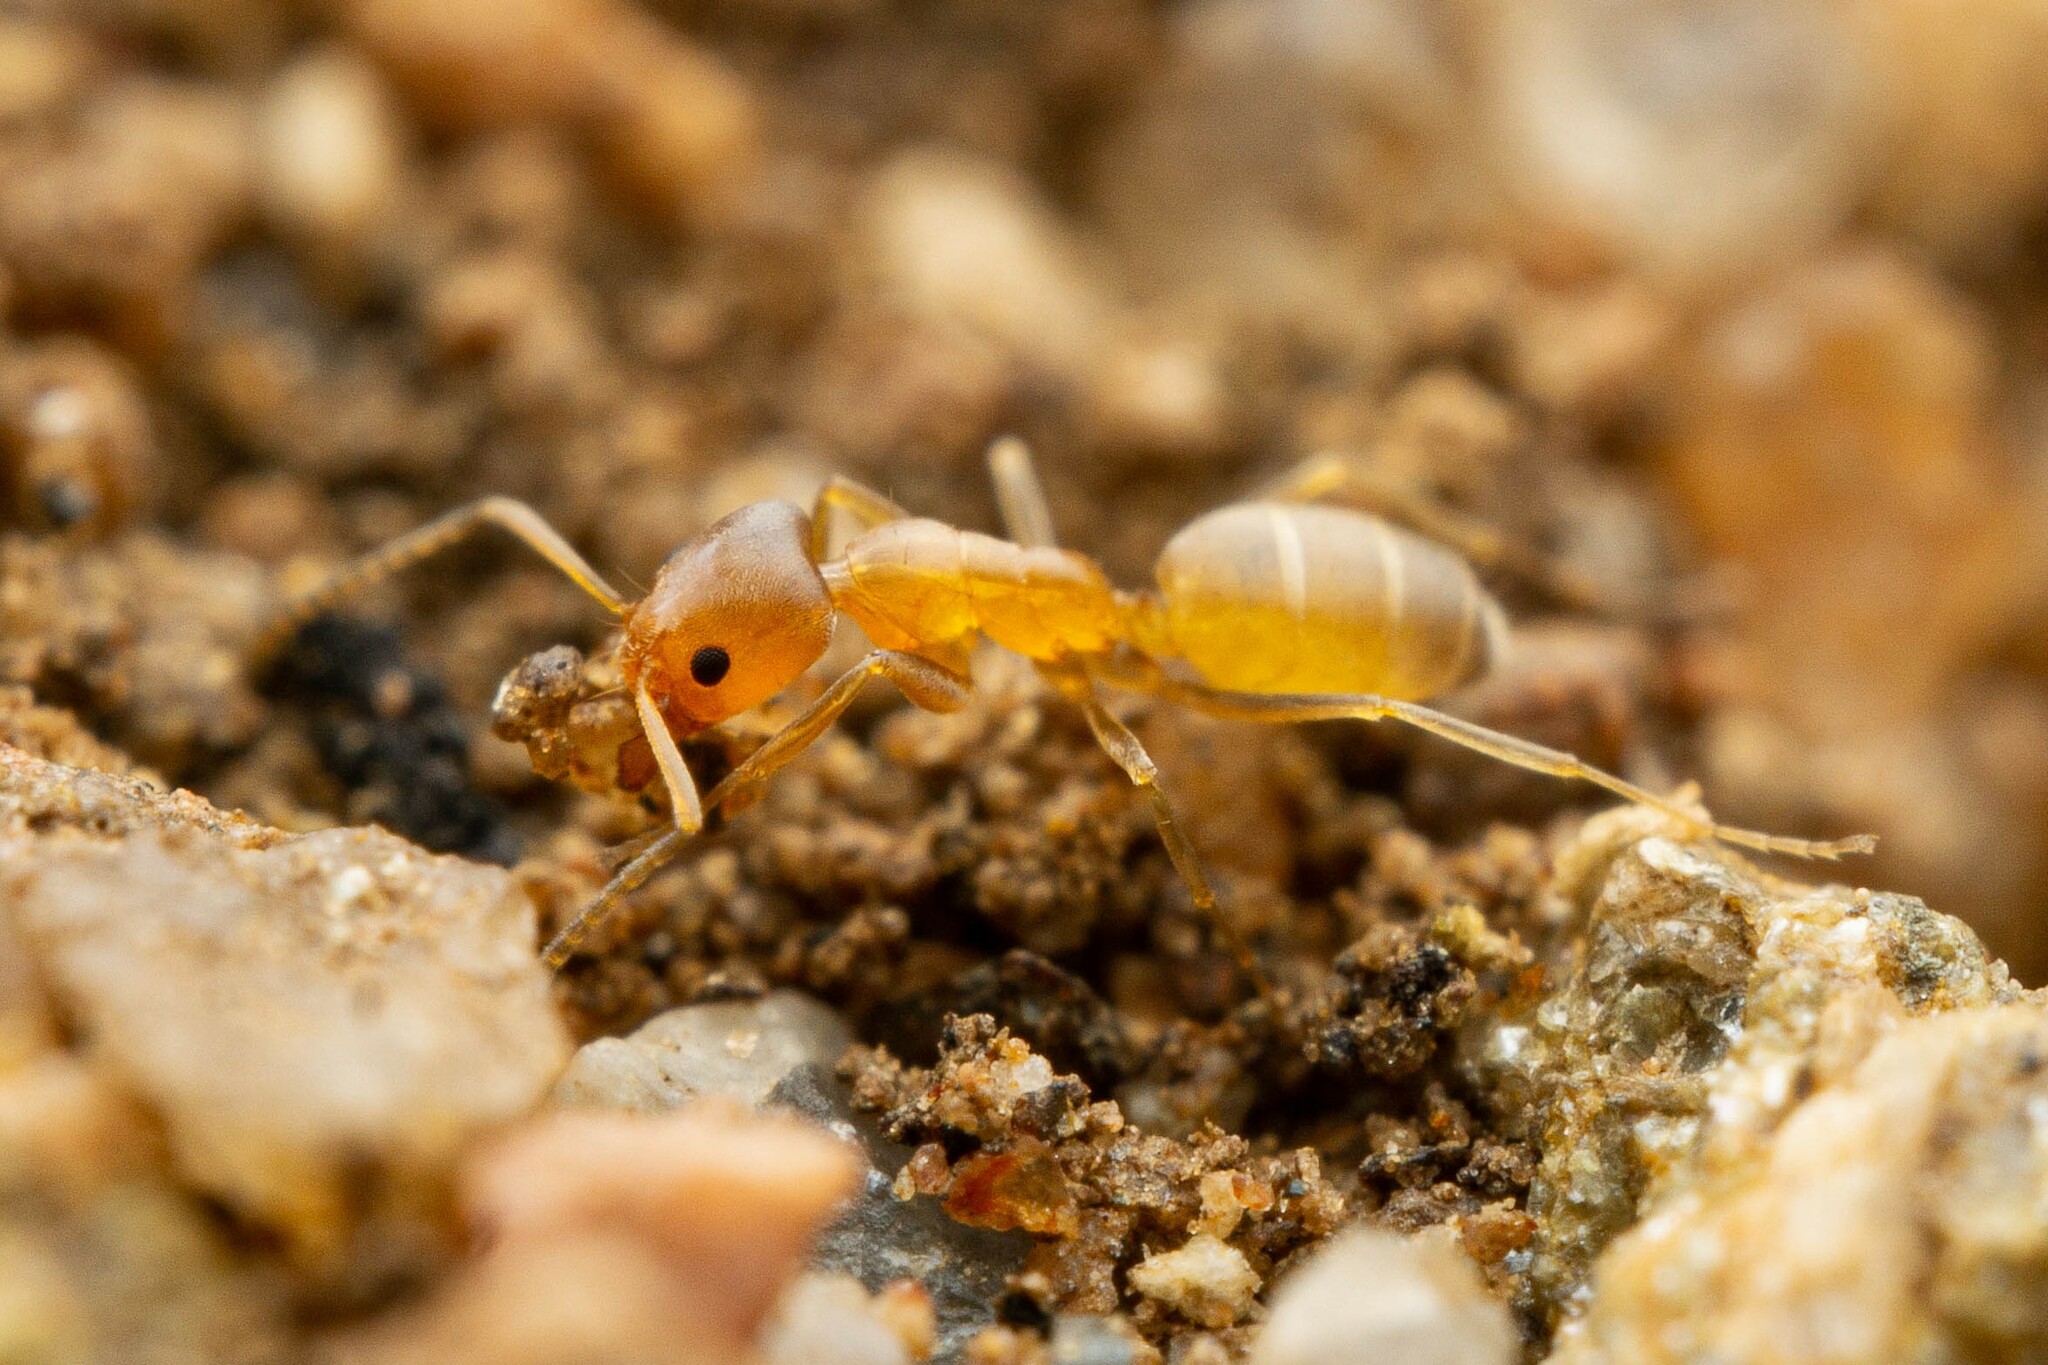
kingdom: Animalia
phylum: Arthropoda
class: Insecta
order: Hymenoptera
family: Formicidae
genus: Forelius
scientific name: Forelius pruinosus
